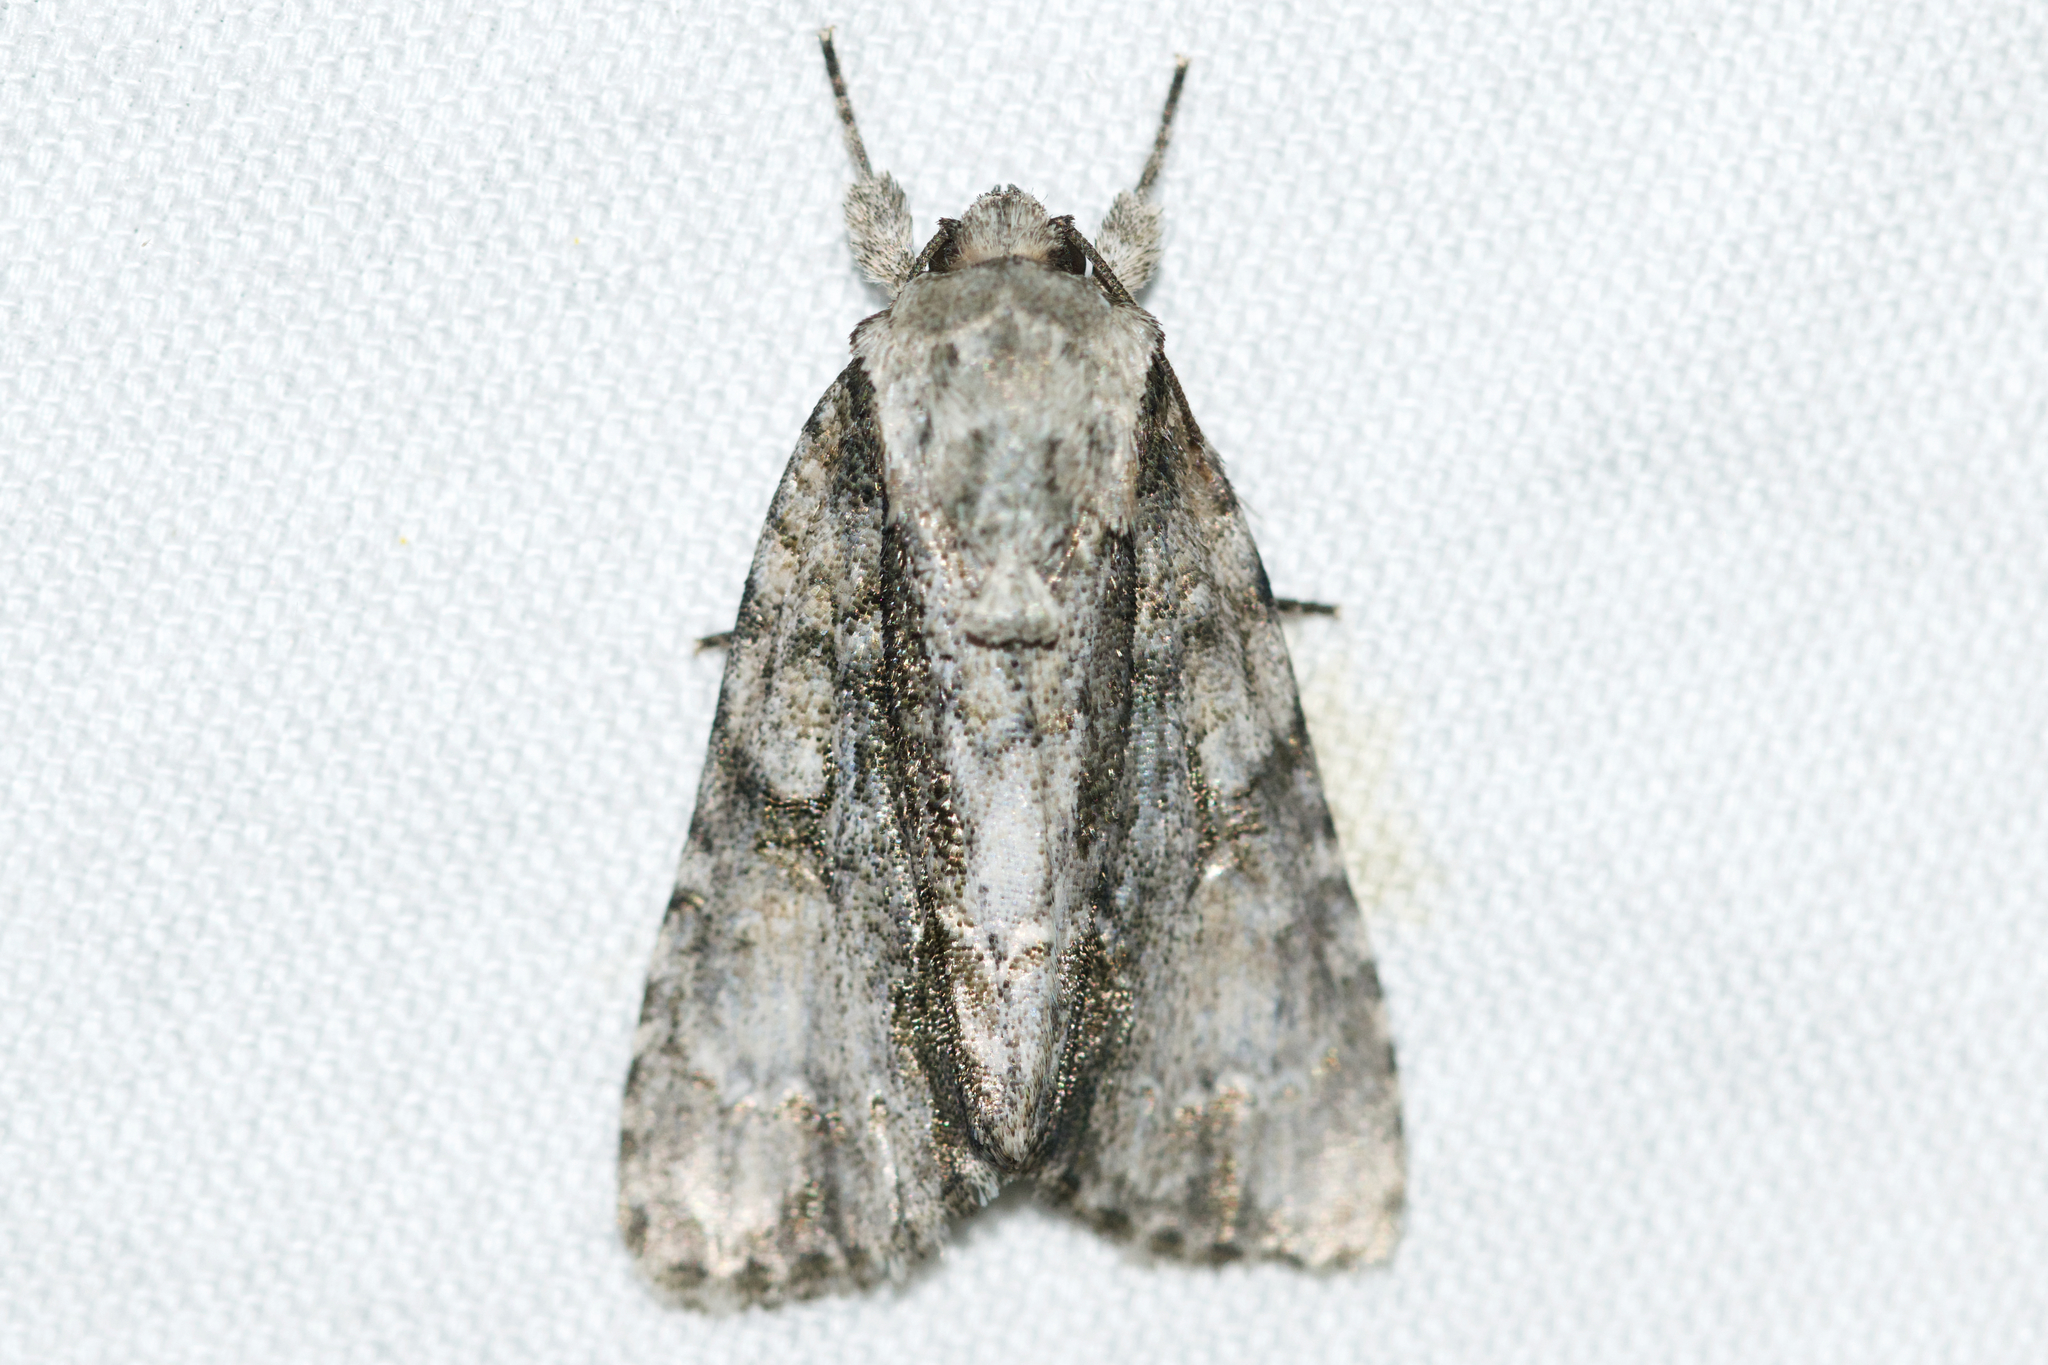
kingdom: Animalia
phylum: Arthropoda
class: Insecta
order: Lepidoptera
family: Noctuidae
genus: Acronicta
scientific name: Acronicta connecta
